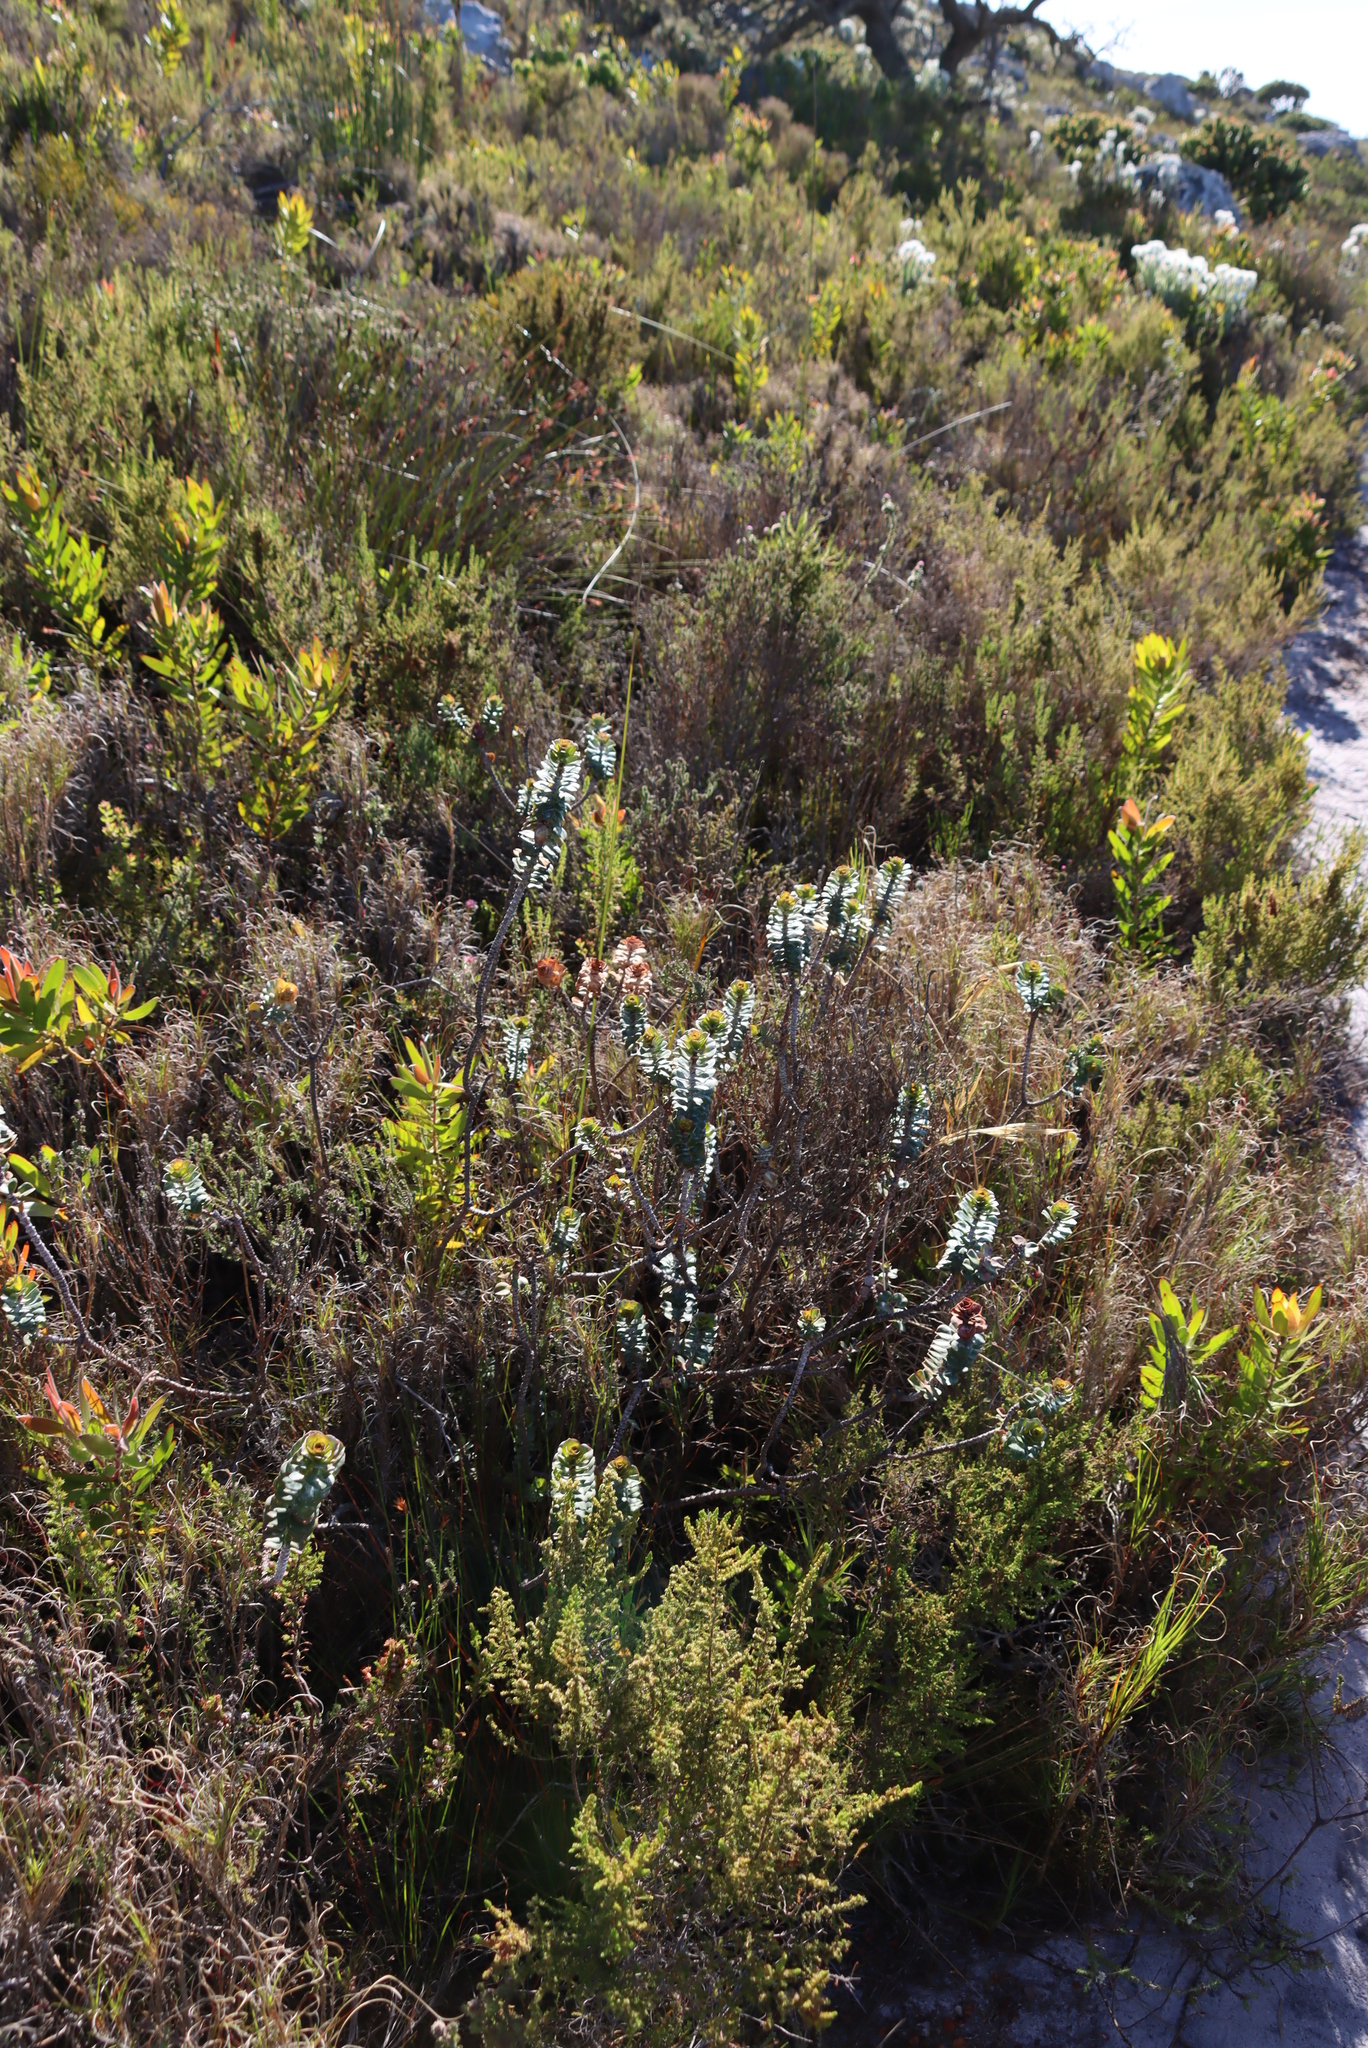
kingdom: Plantae
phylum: Tracheophyta
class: Magnoliopsida
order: Myrtales
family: Penaeaceae
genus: Saltera
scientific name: Saltera sarcocolla
